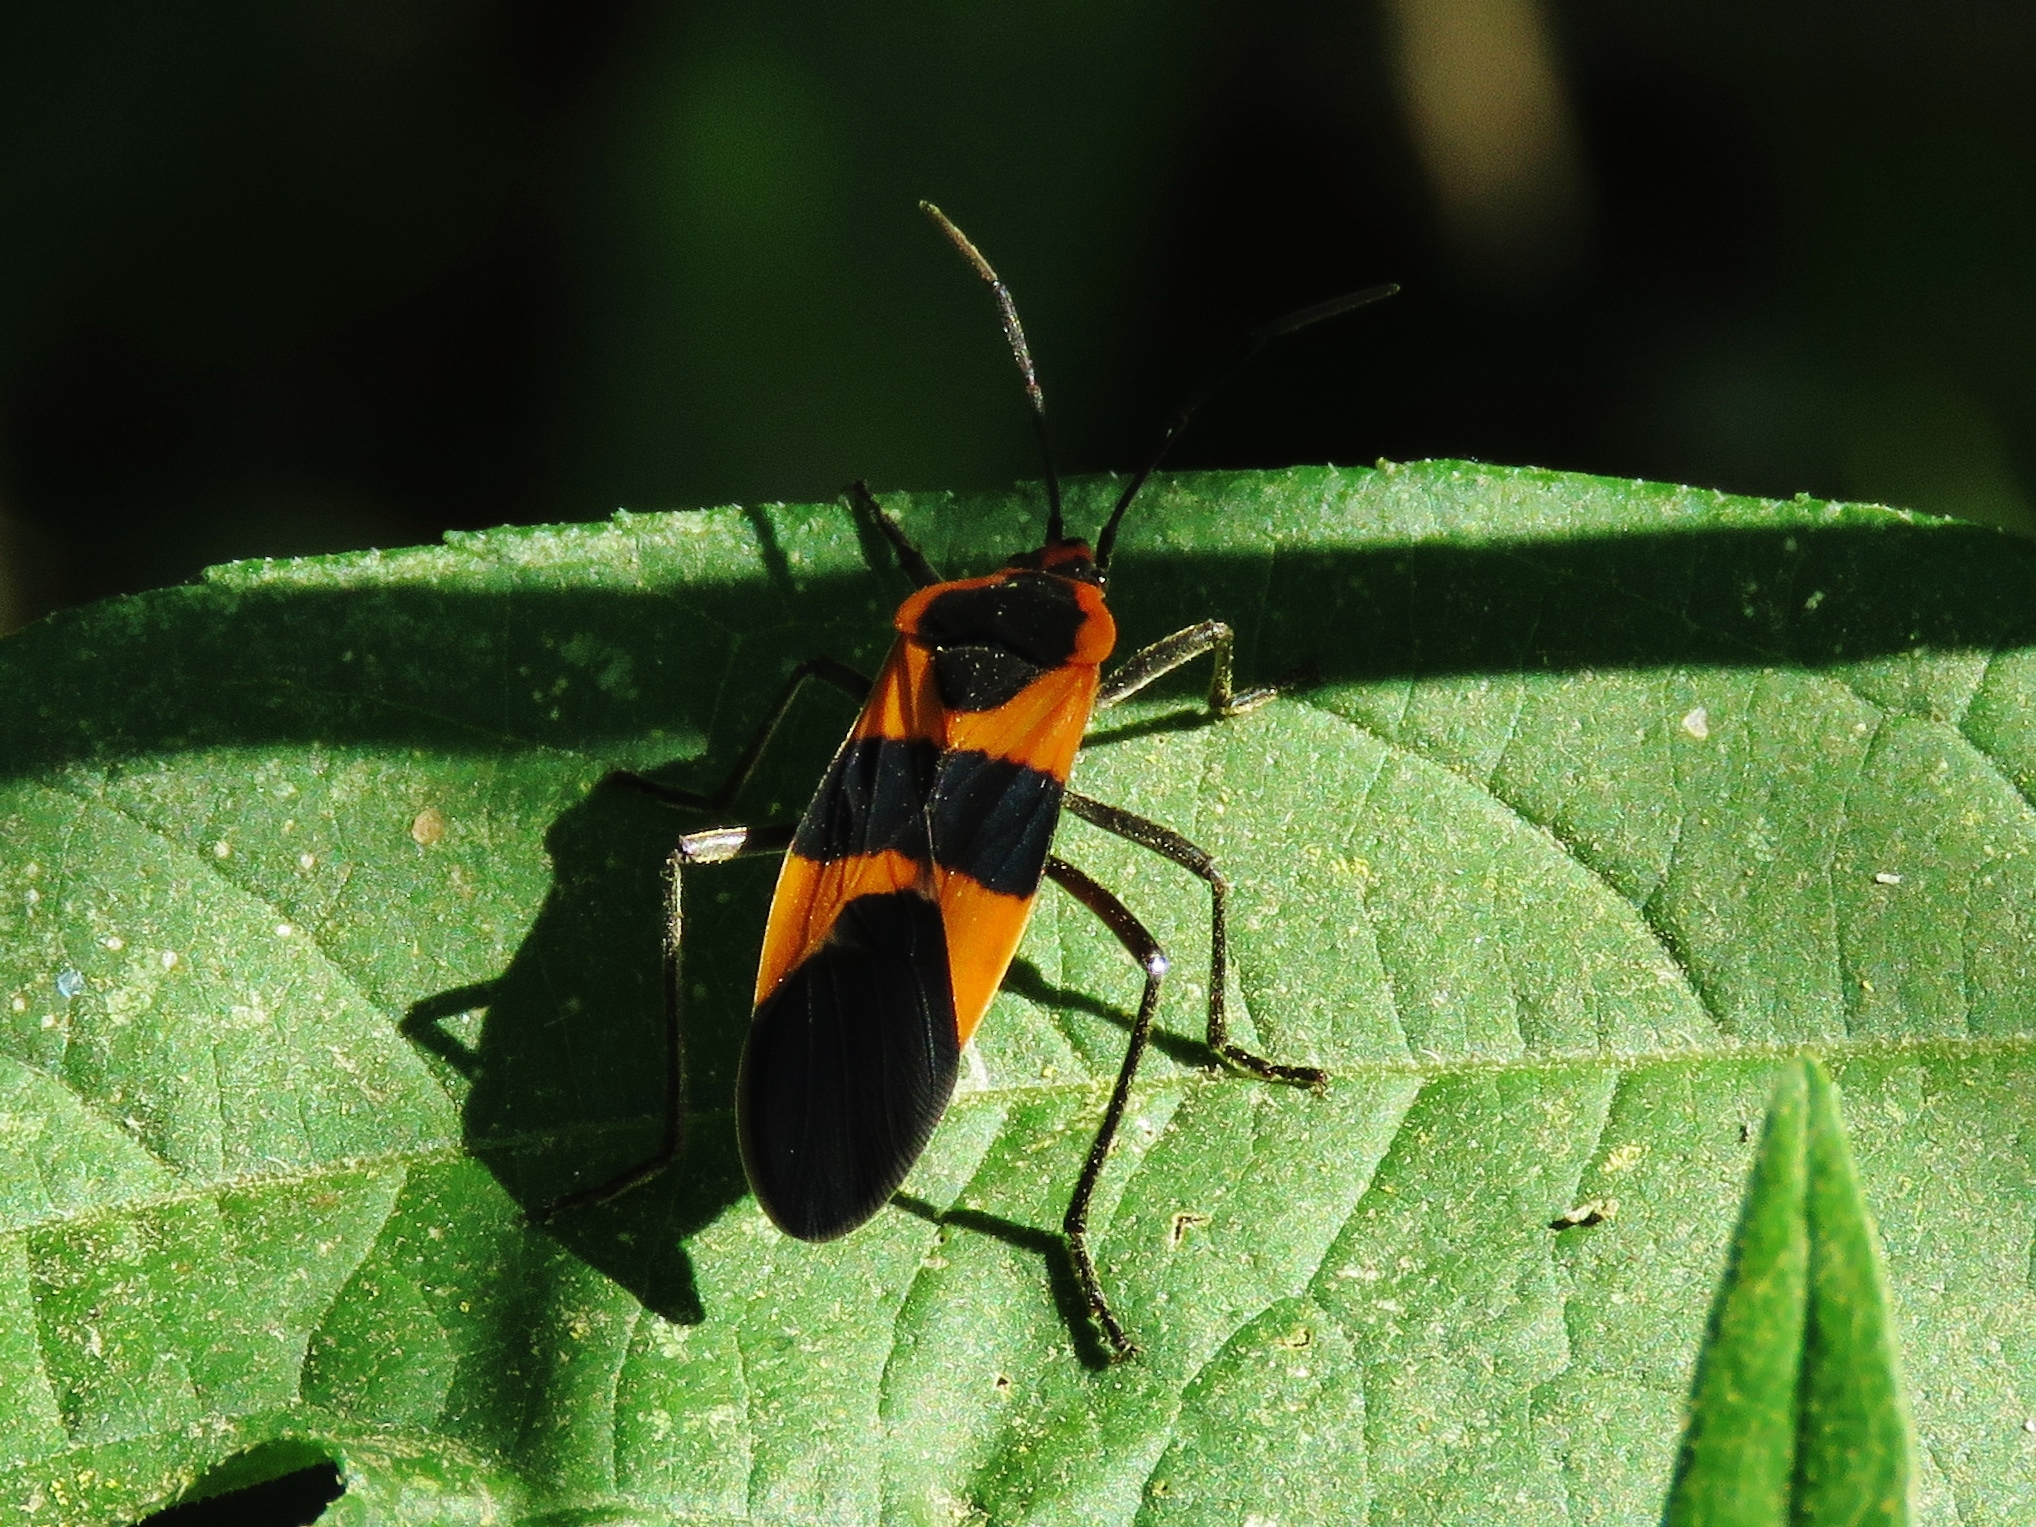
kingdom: Animalia
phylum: Arthropoda
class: Insecta
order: Hemiptera
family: Lygaeidae
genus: Oncopeltus
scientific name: Oncopeltus fasciatus
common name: Large milkweed bug
